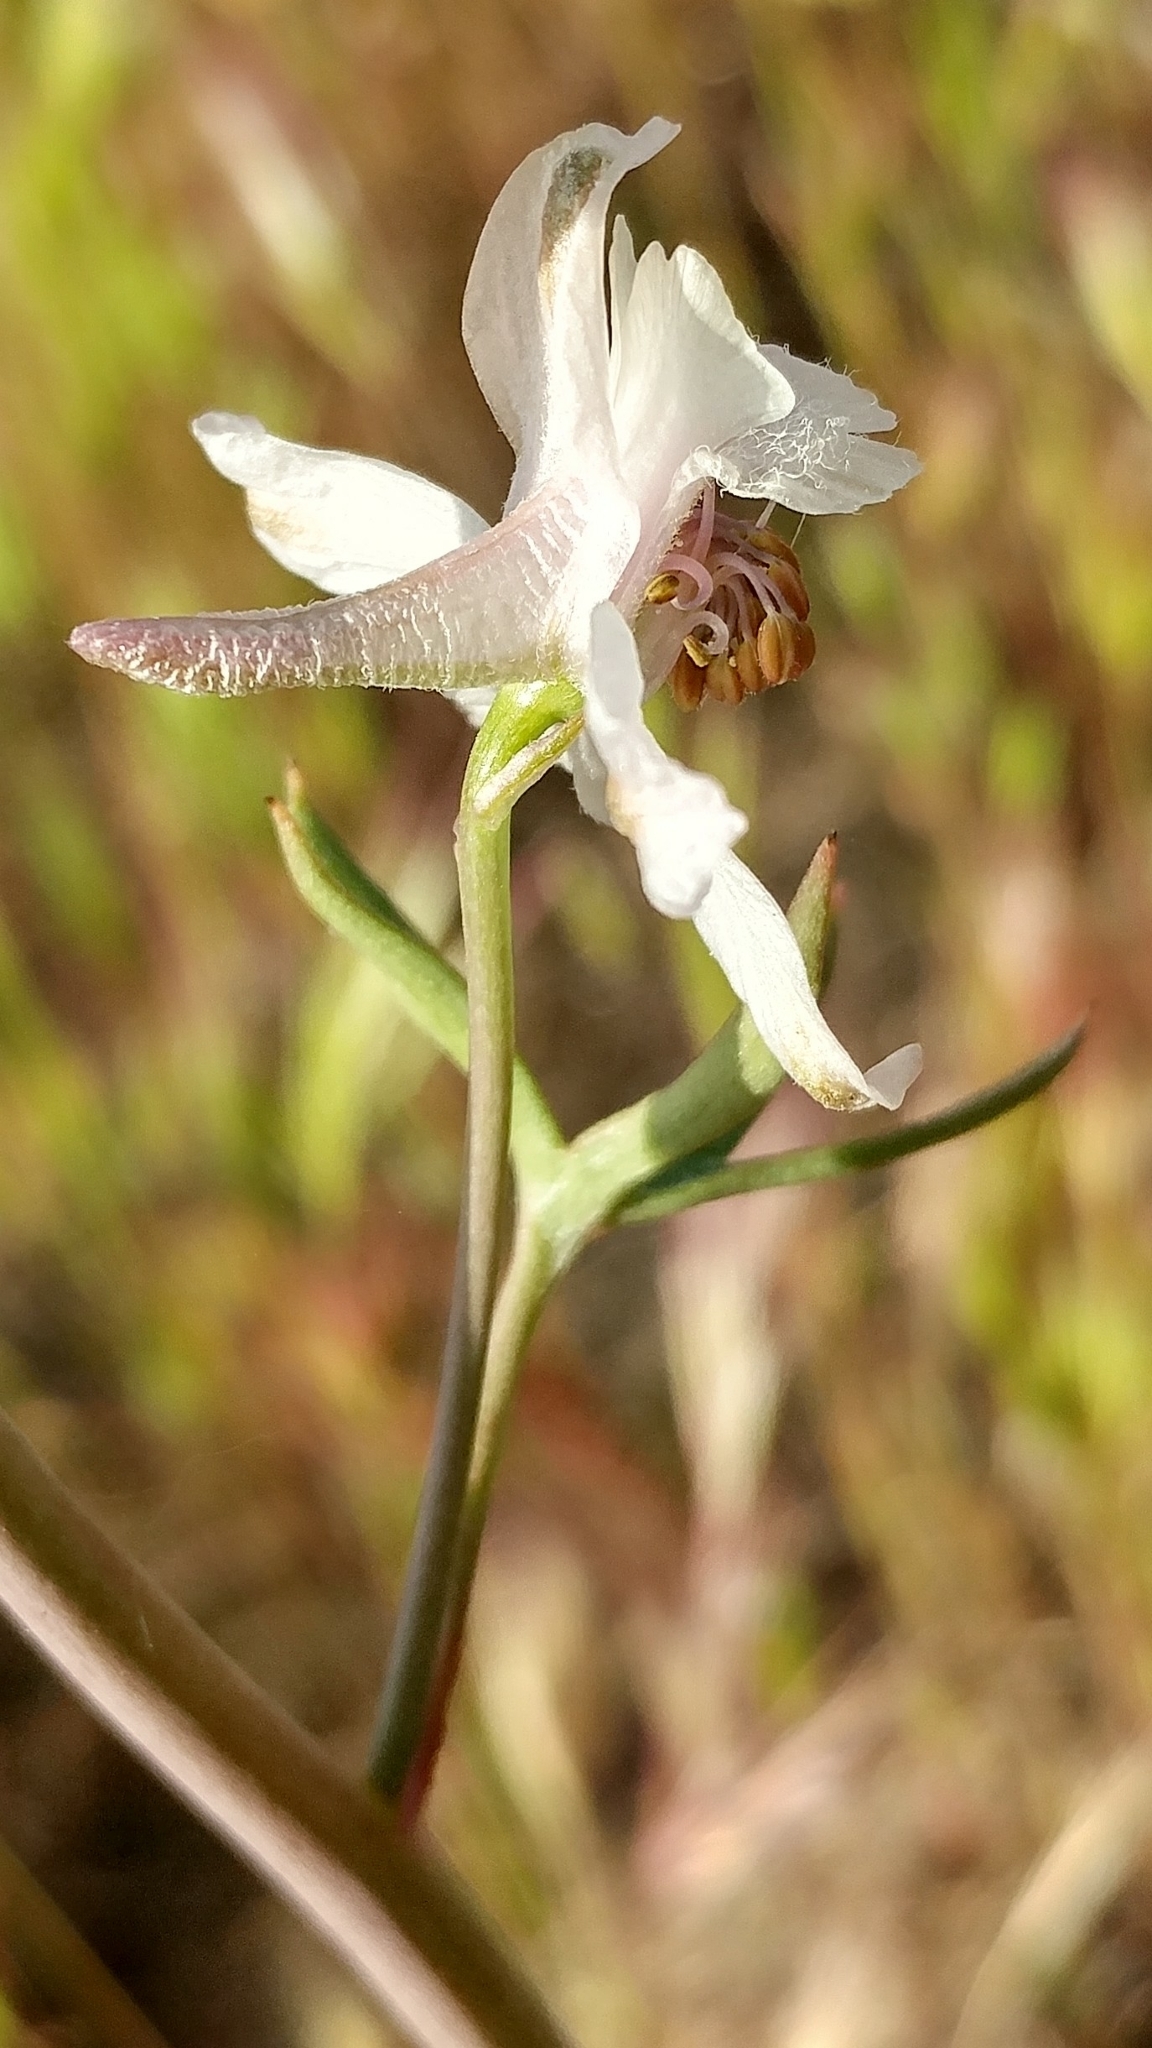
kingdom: Plantae
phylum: Tracheophyta
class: Magnoliopsida
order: Ranunculales
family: Ranunculaceae
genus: Delphinium
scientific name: Delphinium gypsophilum
